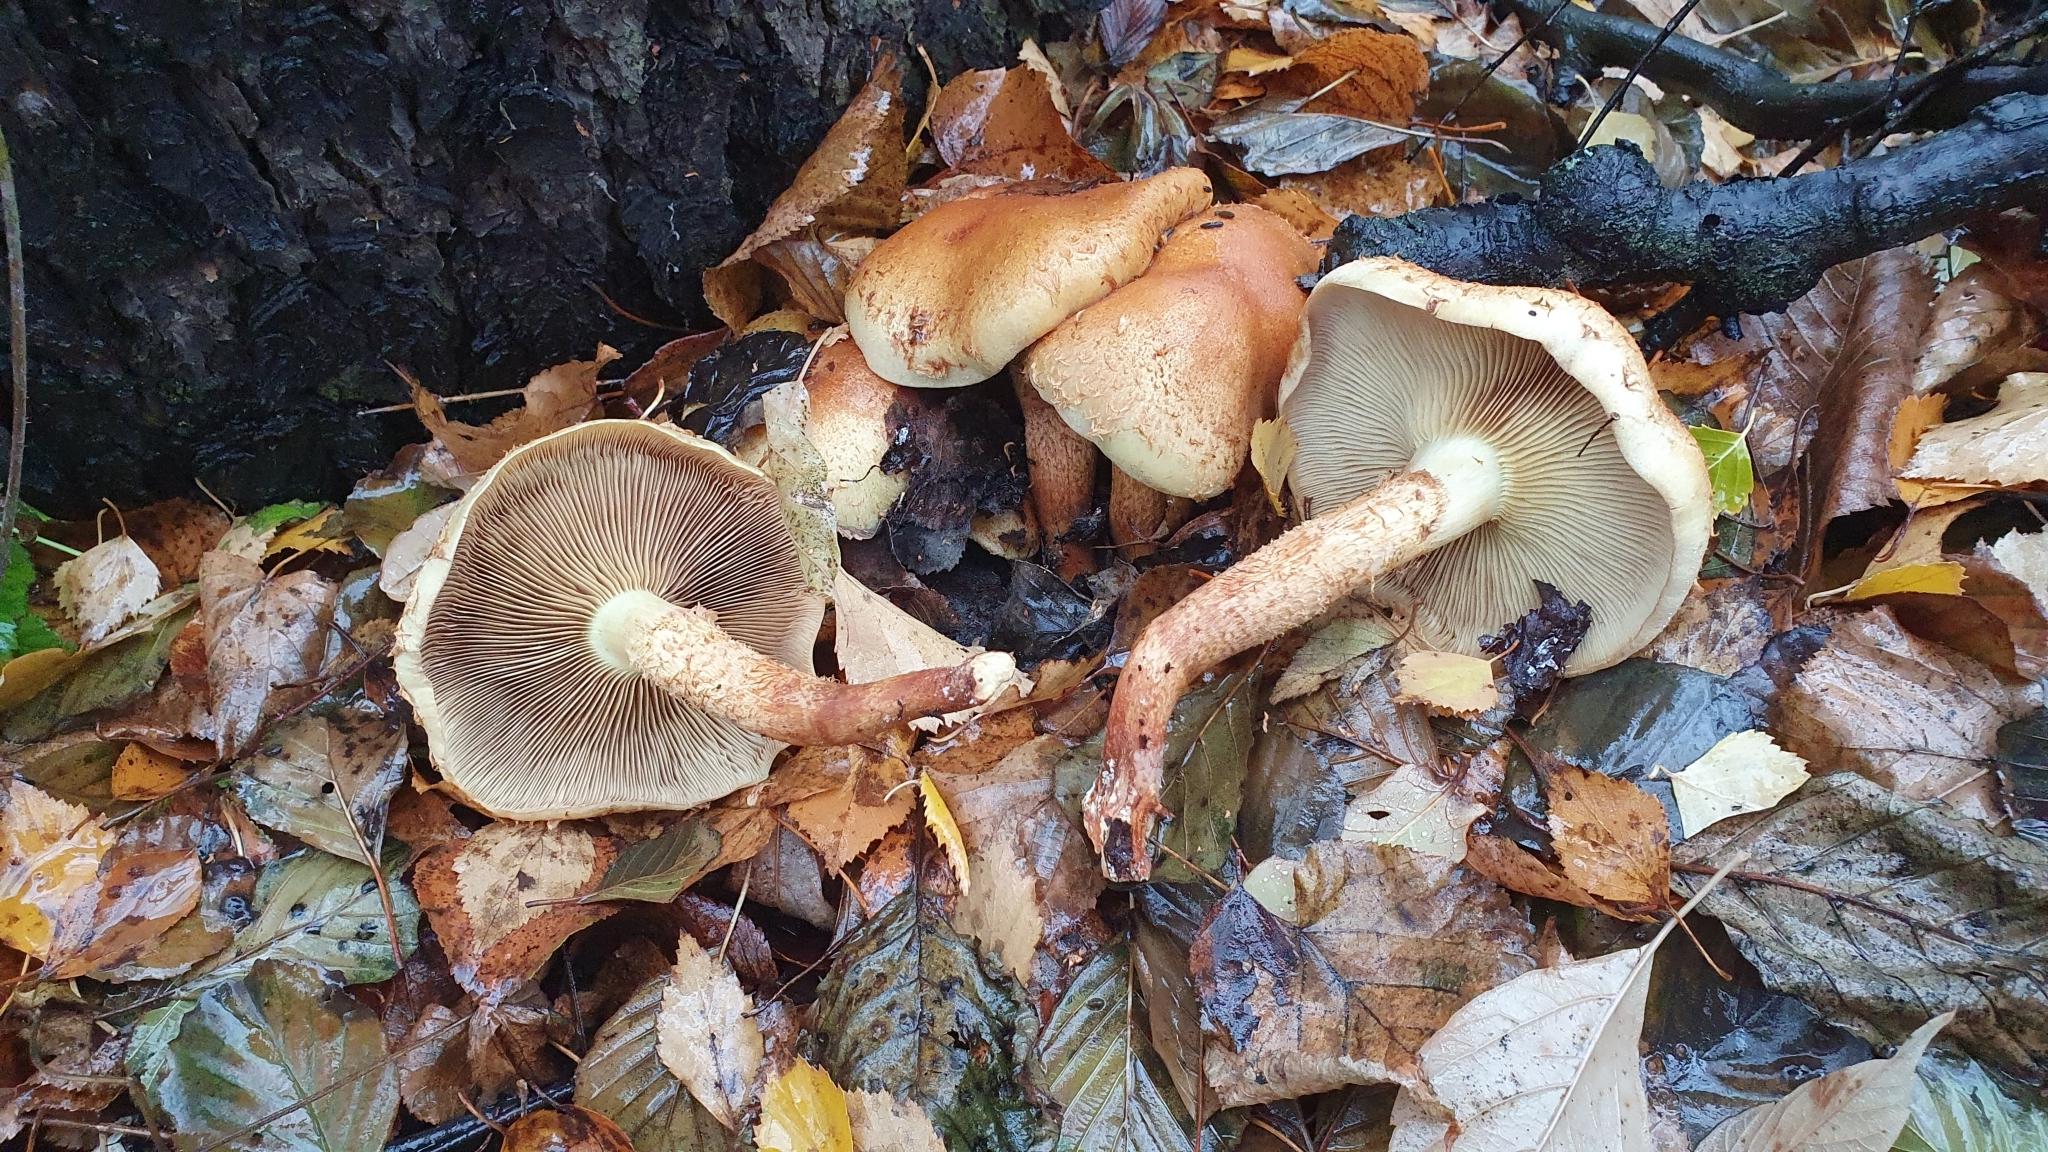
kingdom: Fungi
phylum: Basidiomycota
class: Agaricomycetes
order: Agaricales
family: Strophariaceae
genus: Hypholoma
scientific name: Hypholoma lateritium
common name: Brick caps
